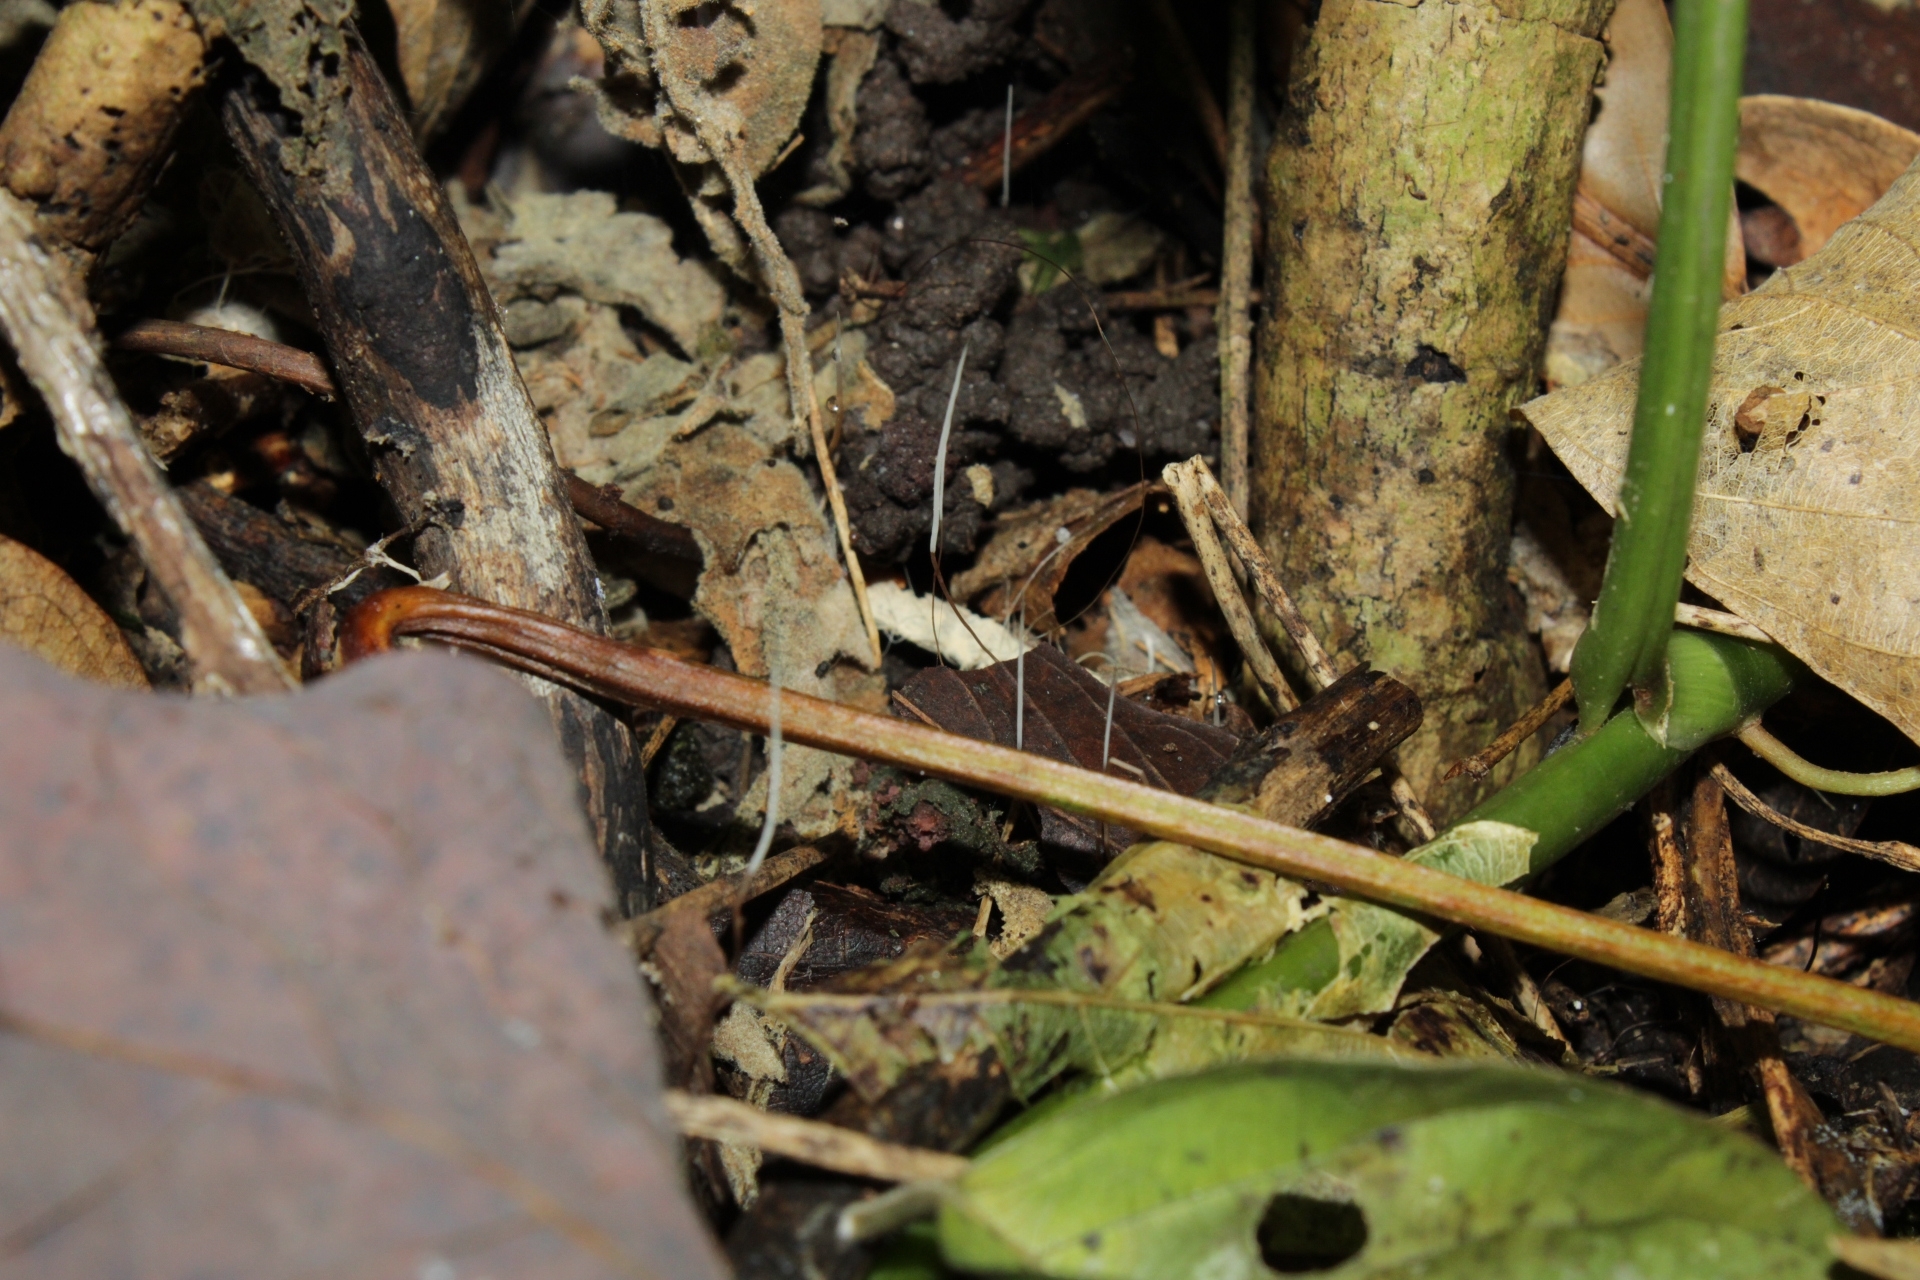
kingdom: Fungi
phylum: Basidiomycota
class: Agaricomycetes
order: Agaricales
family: Typhulaceae
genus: Typhula
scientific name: Typhula juncea
